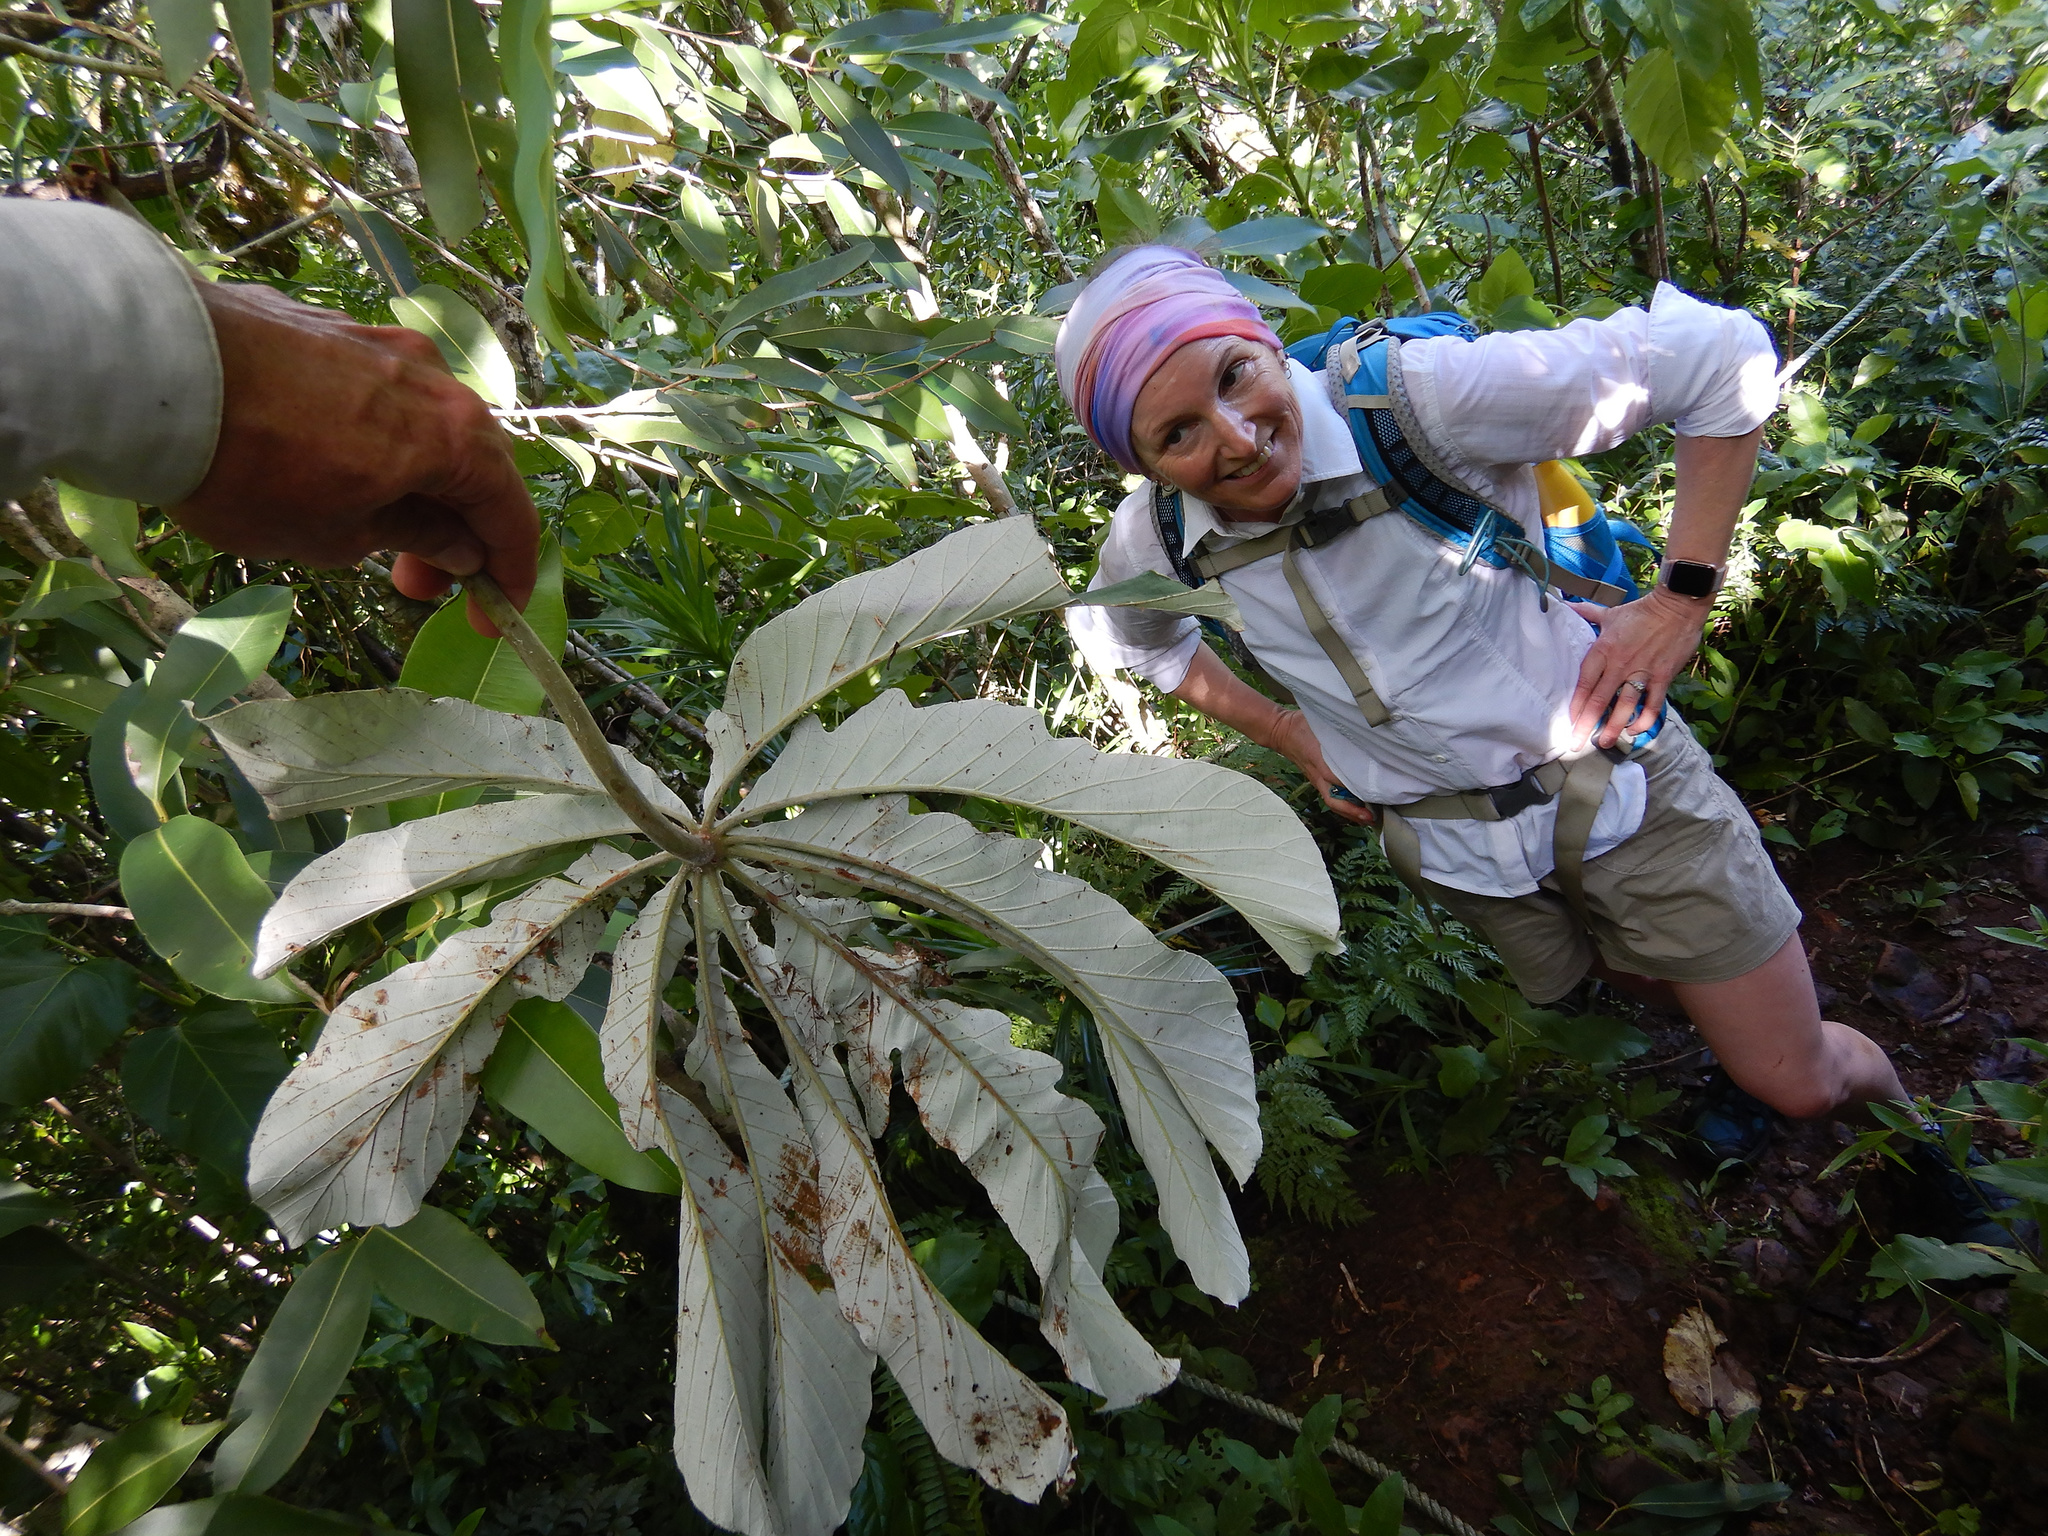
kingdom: Plantae
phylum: Tracheophyta
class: Magnoliopsida
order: Rosales
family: Urticaceae
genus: Cecropia
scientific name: Cecropia pachystachya
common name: Ambay pumpwood
